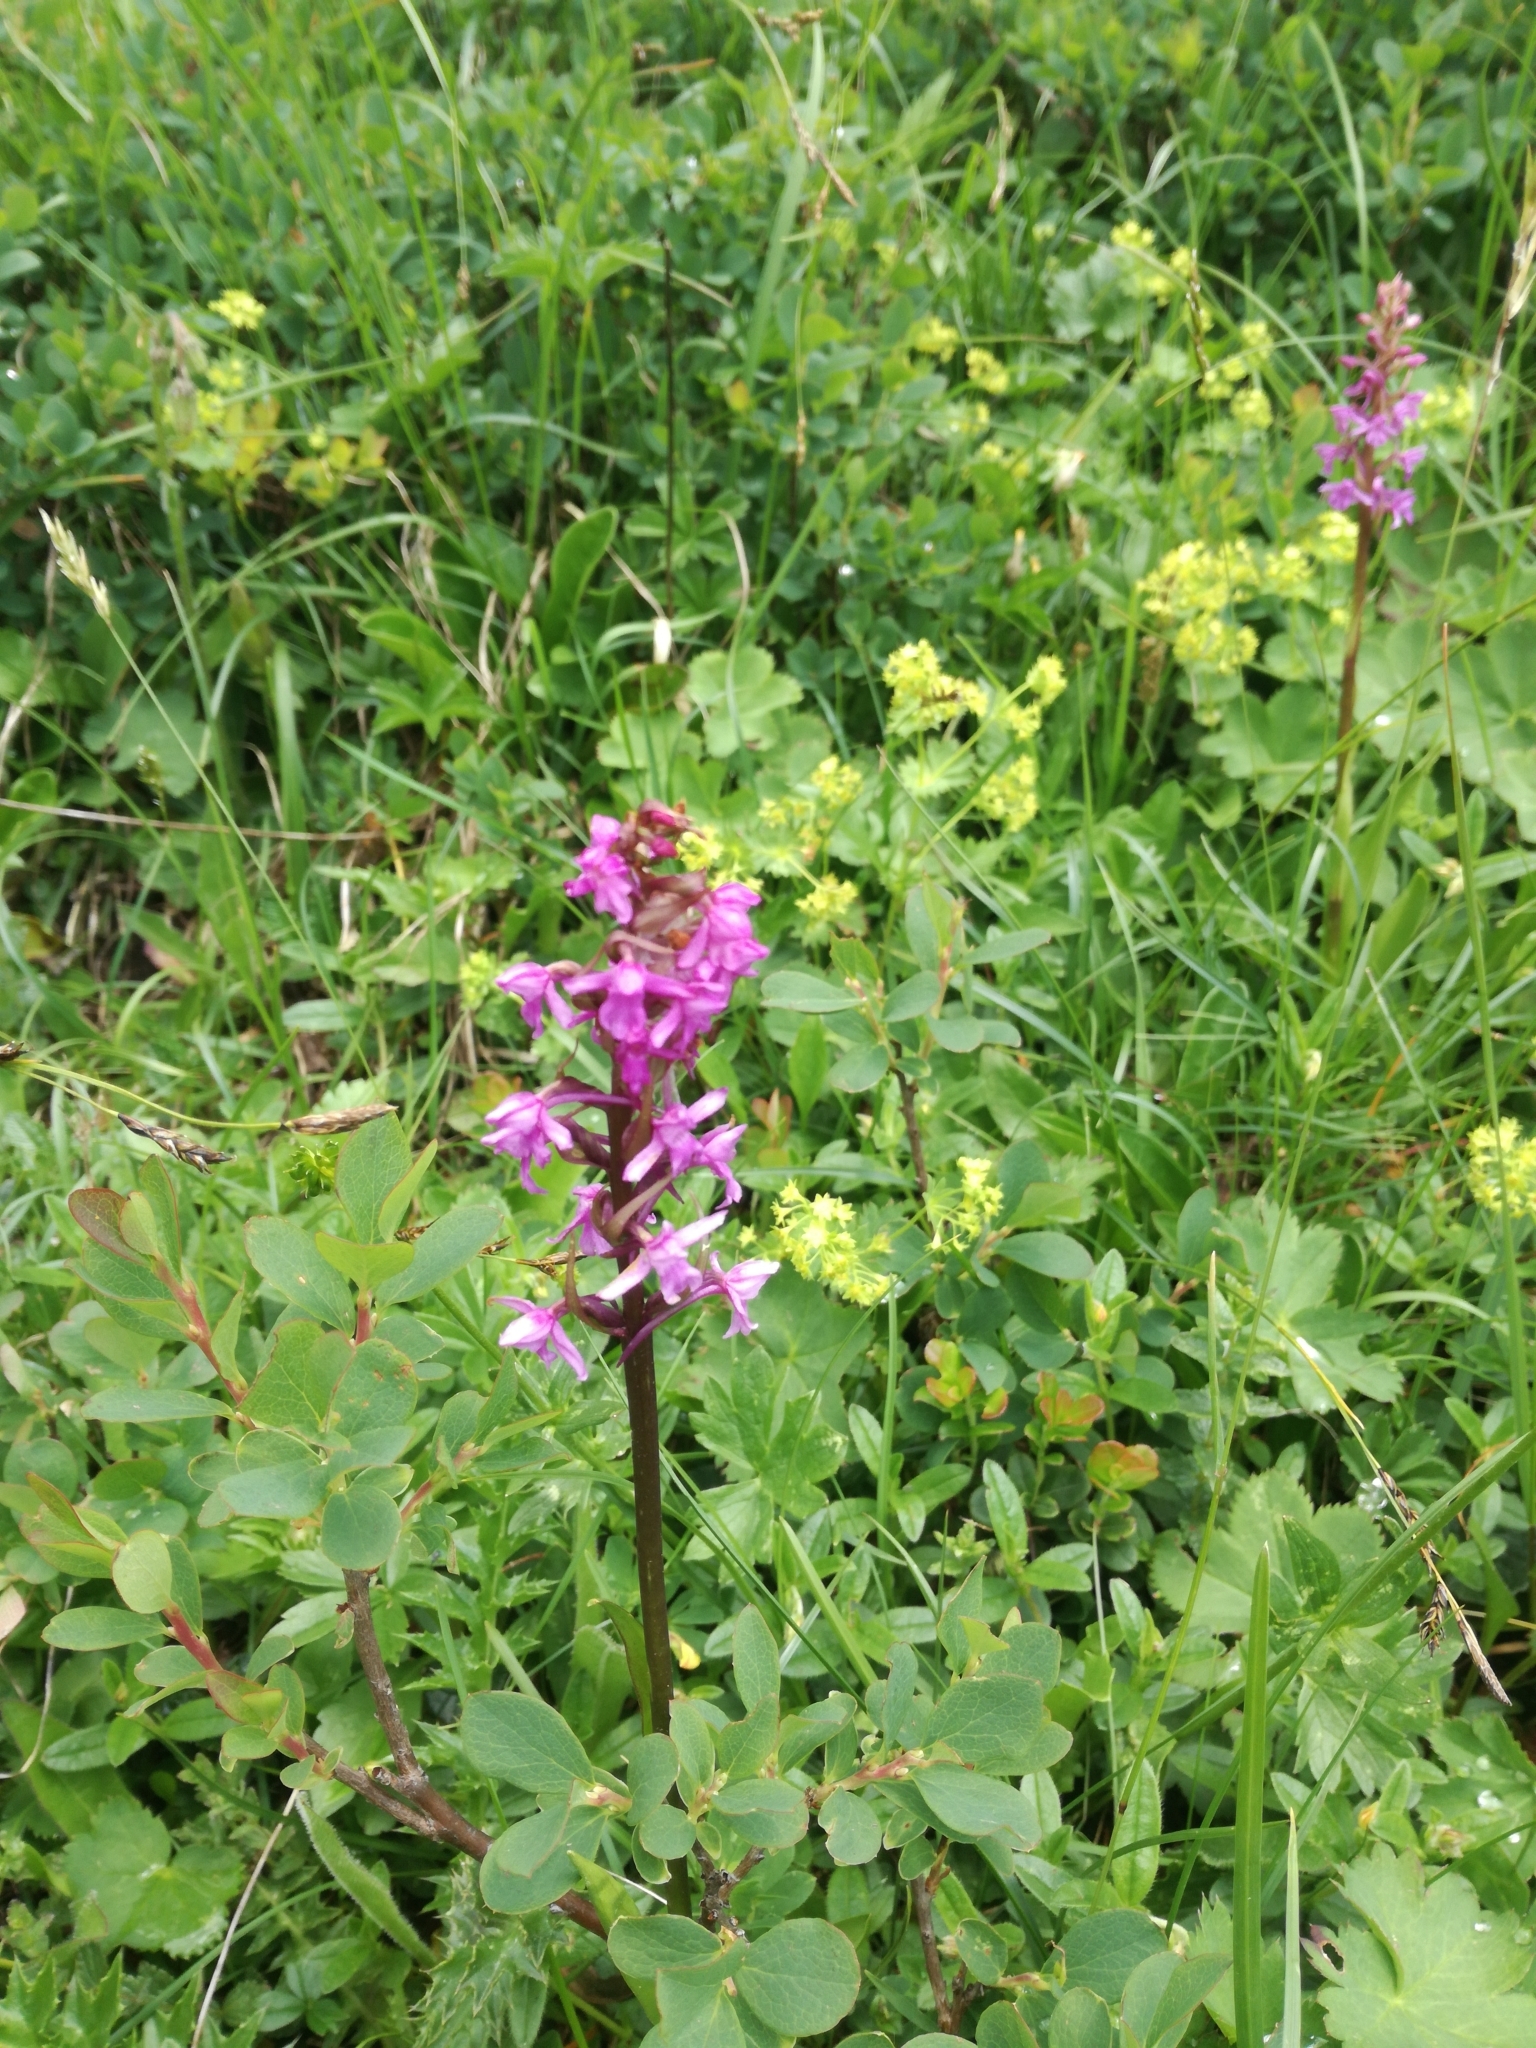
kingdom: Plantae
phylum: Tracheophyta
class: Liliopsida
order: Asparagales
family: Orchidaceae
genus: Gymnadenia
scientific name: Gymnadenia conopsea
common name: Fragrant orchid
